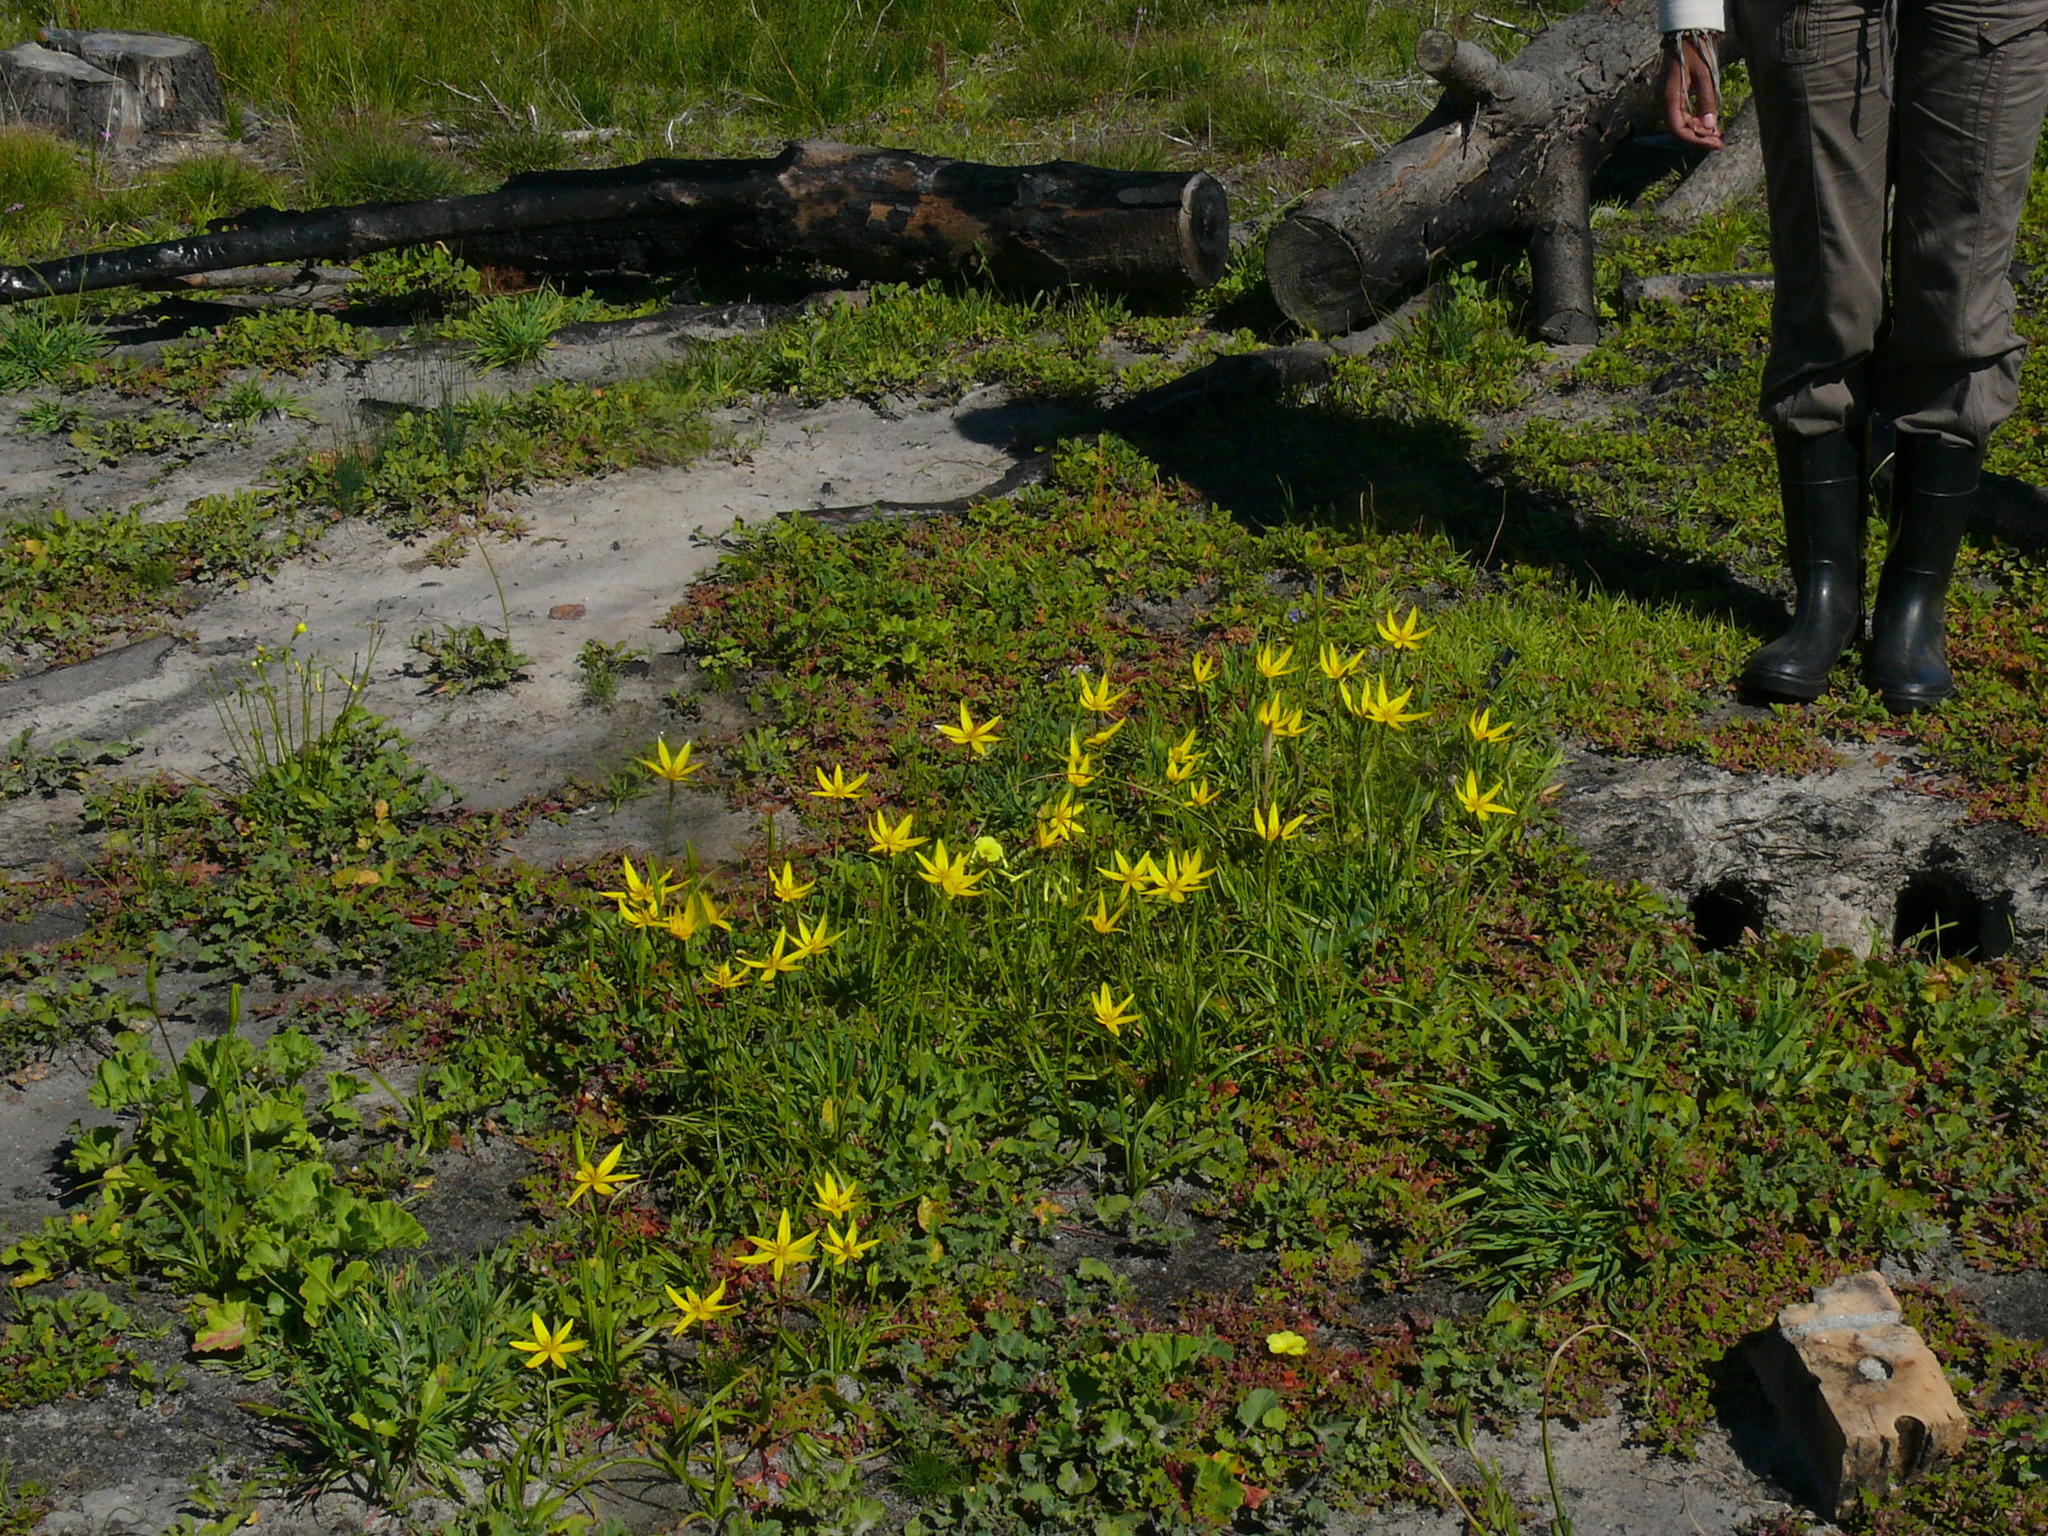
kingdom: Plantae
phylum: Tracheophyta
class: Liliopsida
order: Asparagales
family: Hypoxidaceae
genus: Pauridia
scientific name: Pauridia capensis
